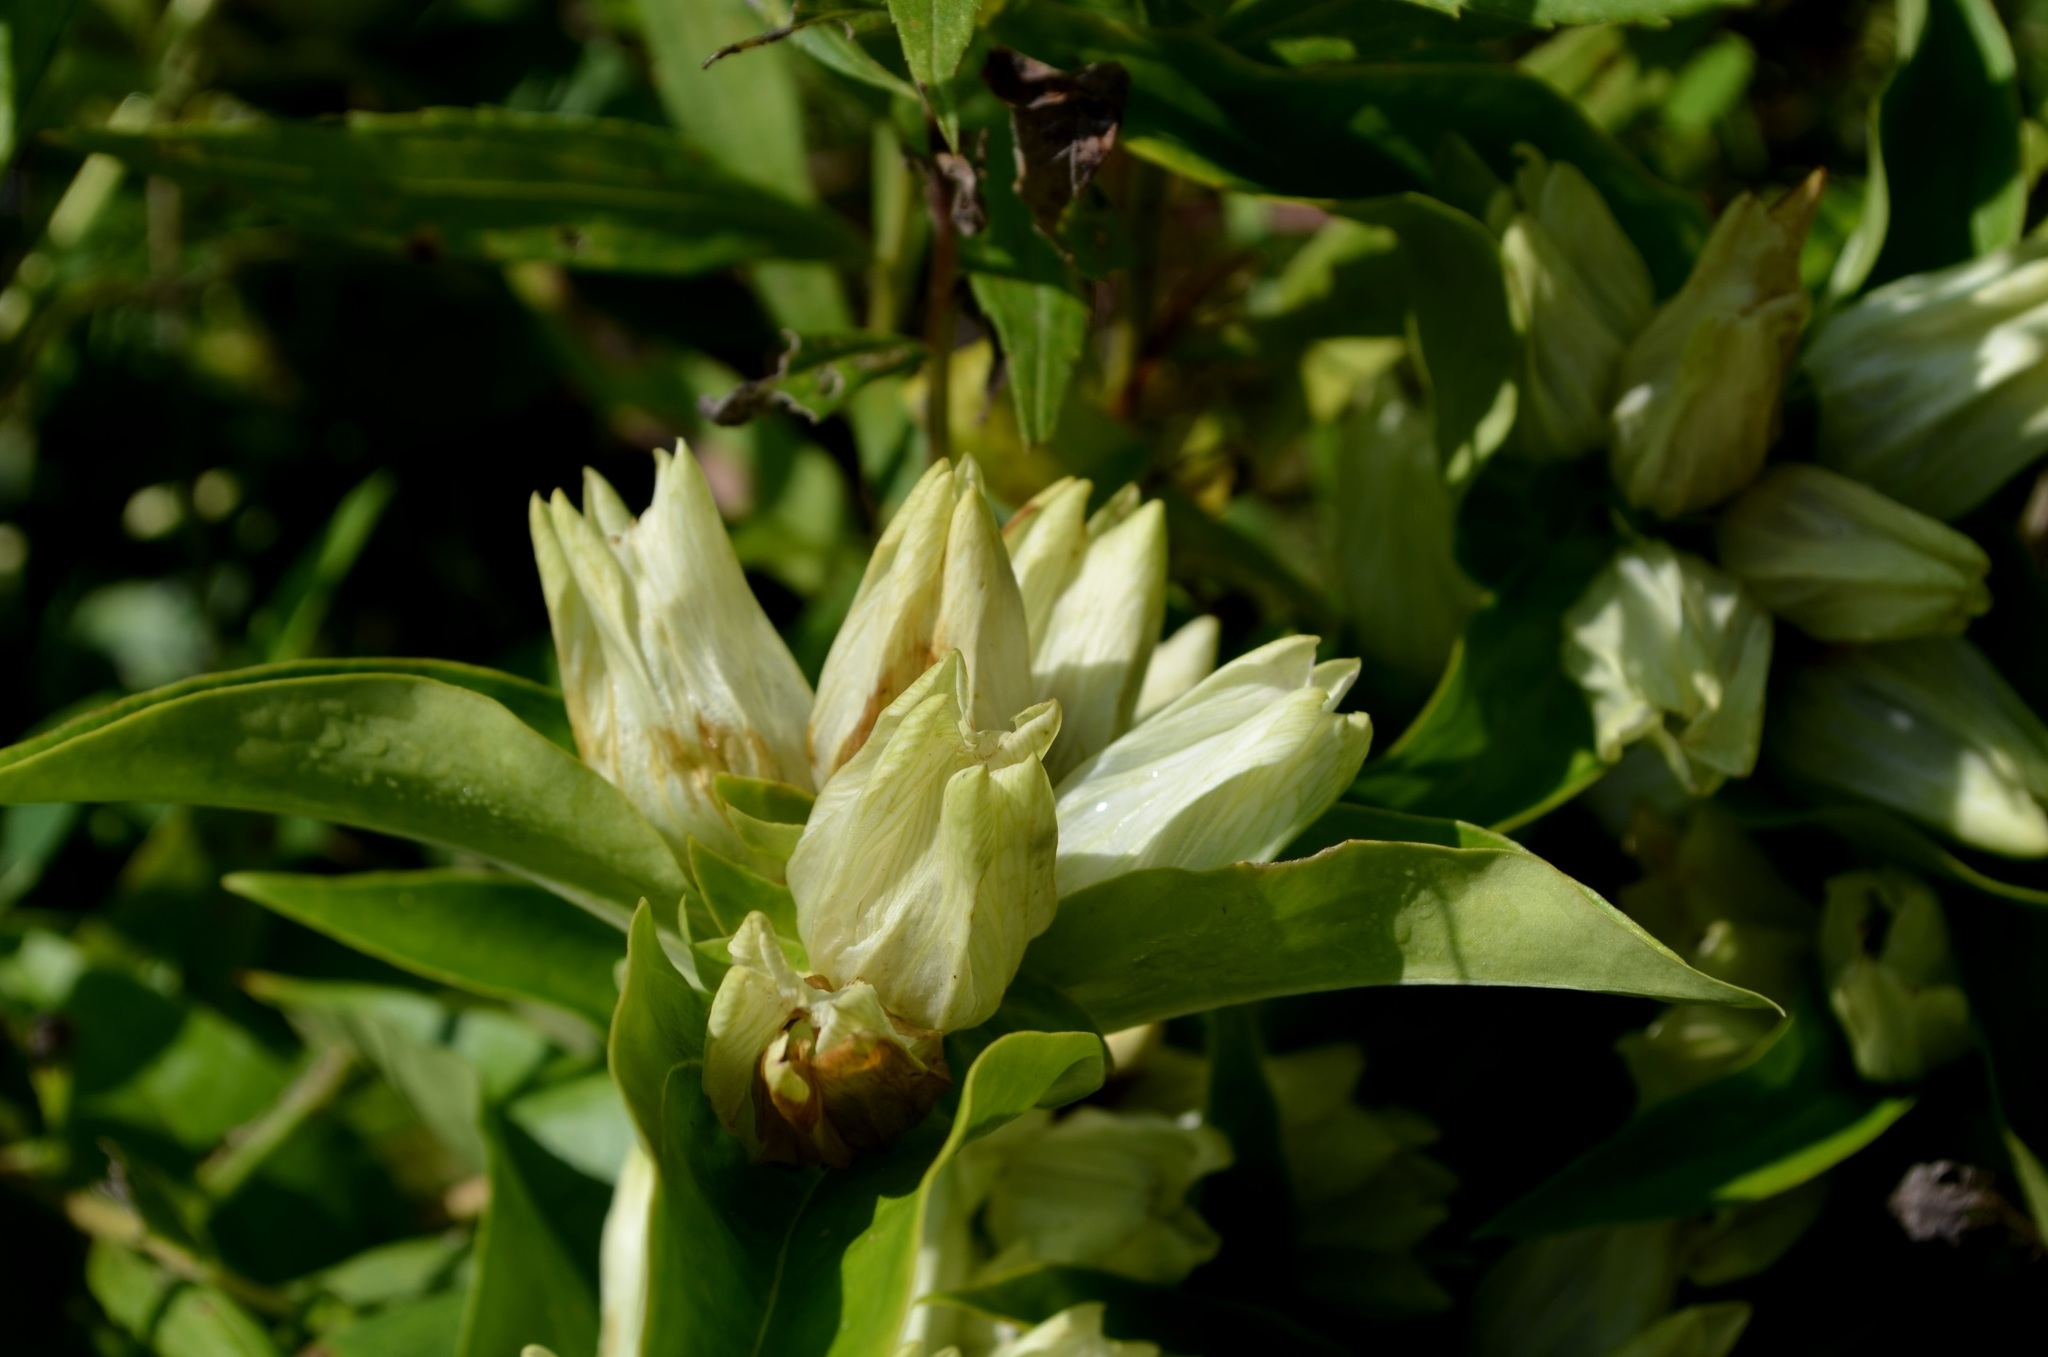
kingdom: Plantae
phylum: Tracheophyta
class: Magnoliopsida
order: Gentianales
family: Gentianaceae
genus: Gentiana
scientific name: Gentiana alba
